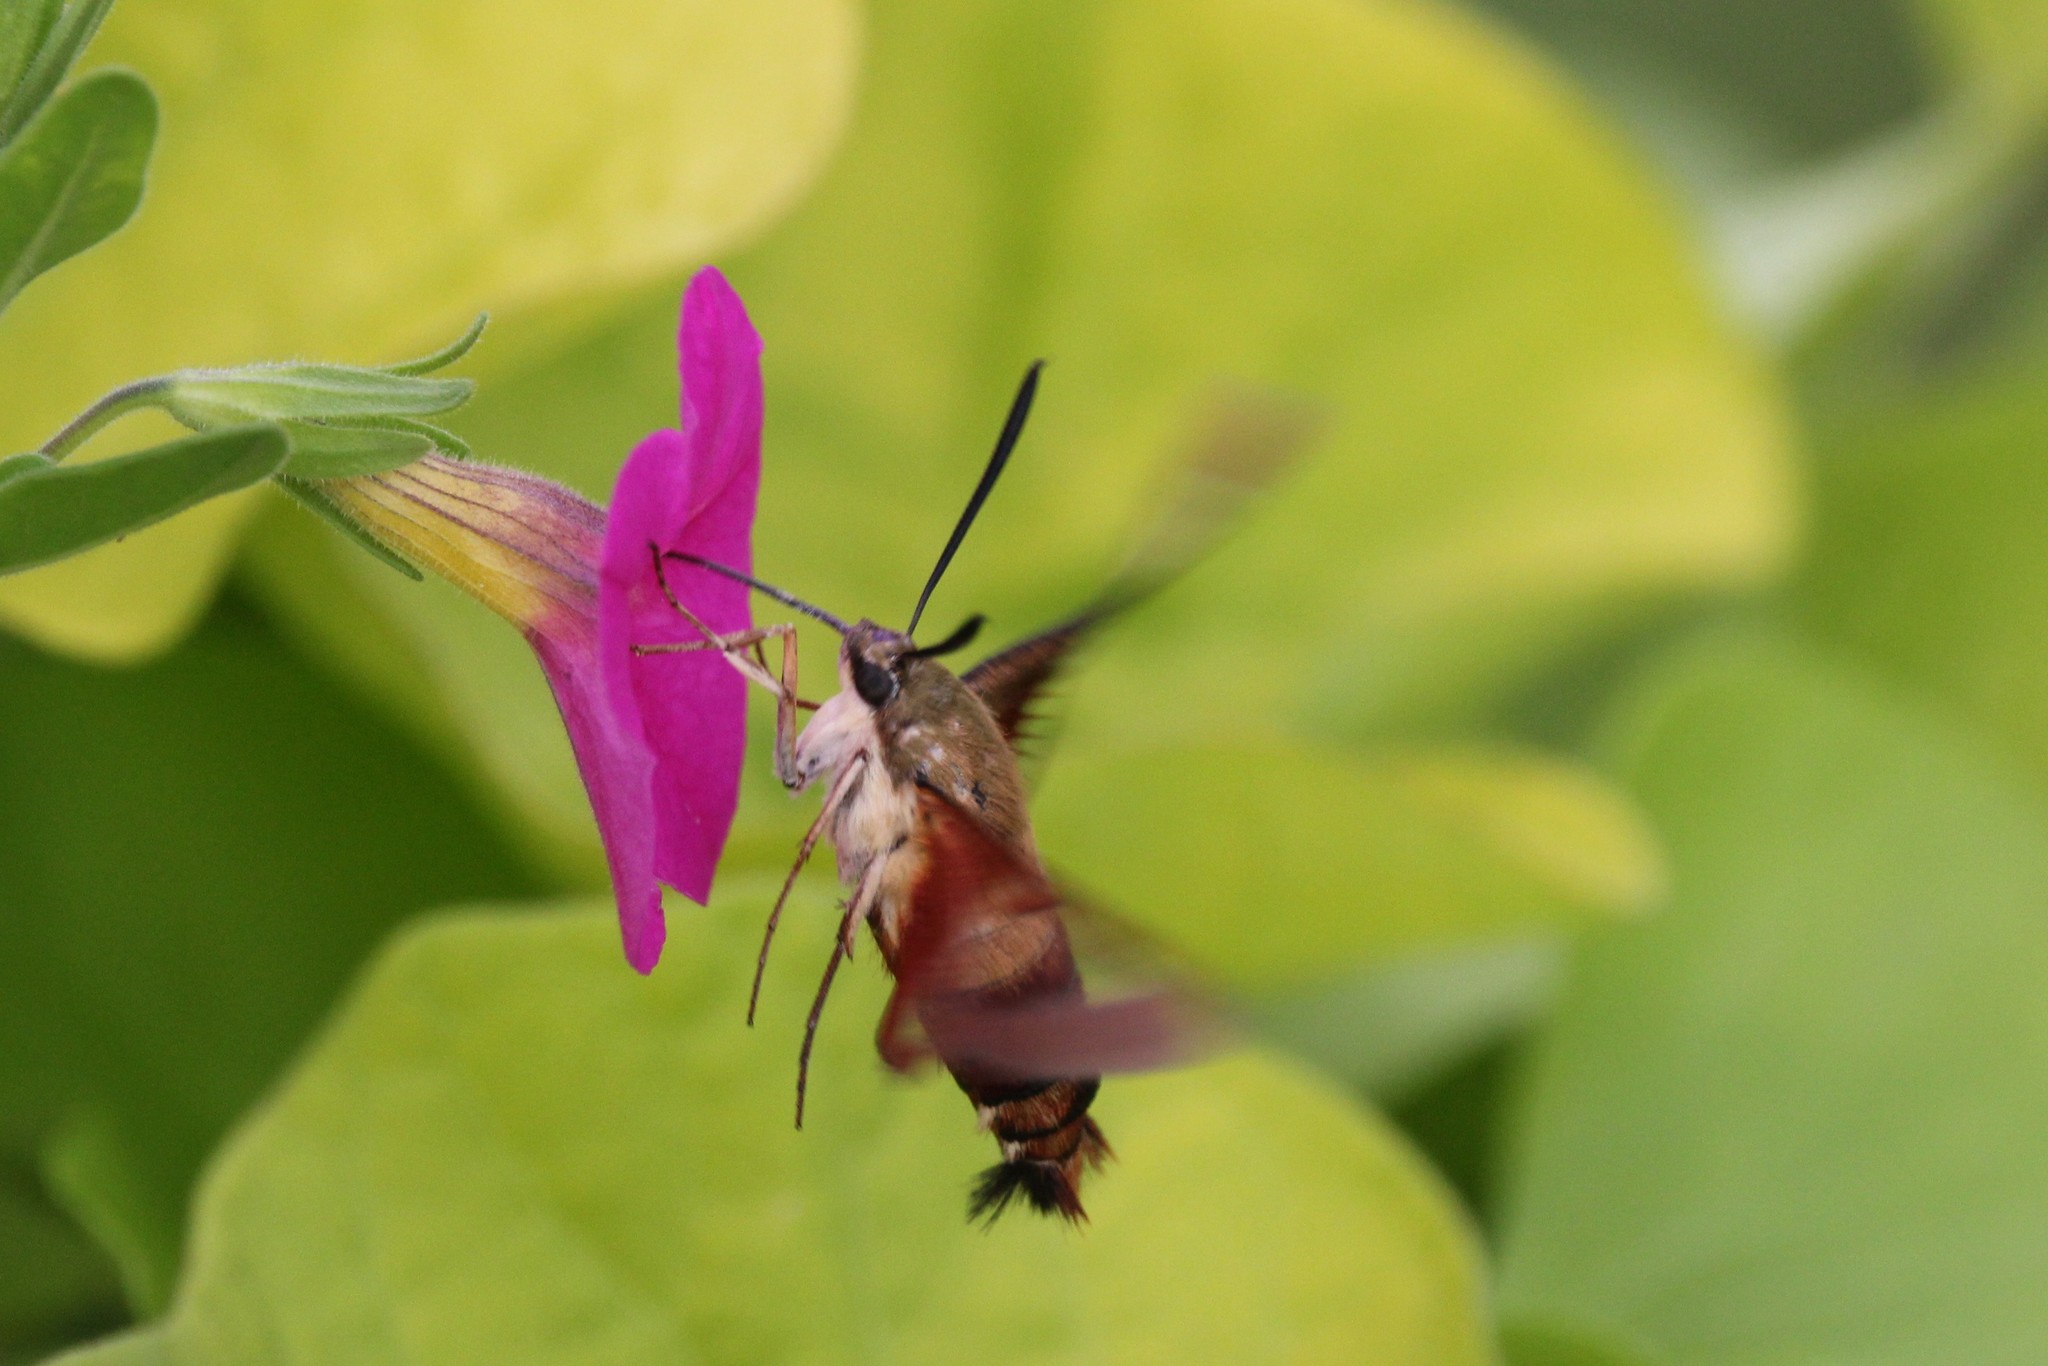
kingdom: Animalia
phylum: Arthropoda
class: Insecta
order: Lepidoptera
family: Sphingidae
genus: Hemaris
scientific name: Hemaris thysbe
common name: Common clear-wing
